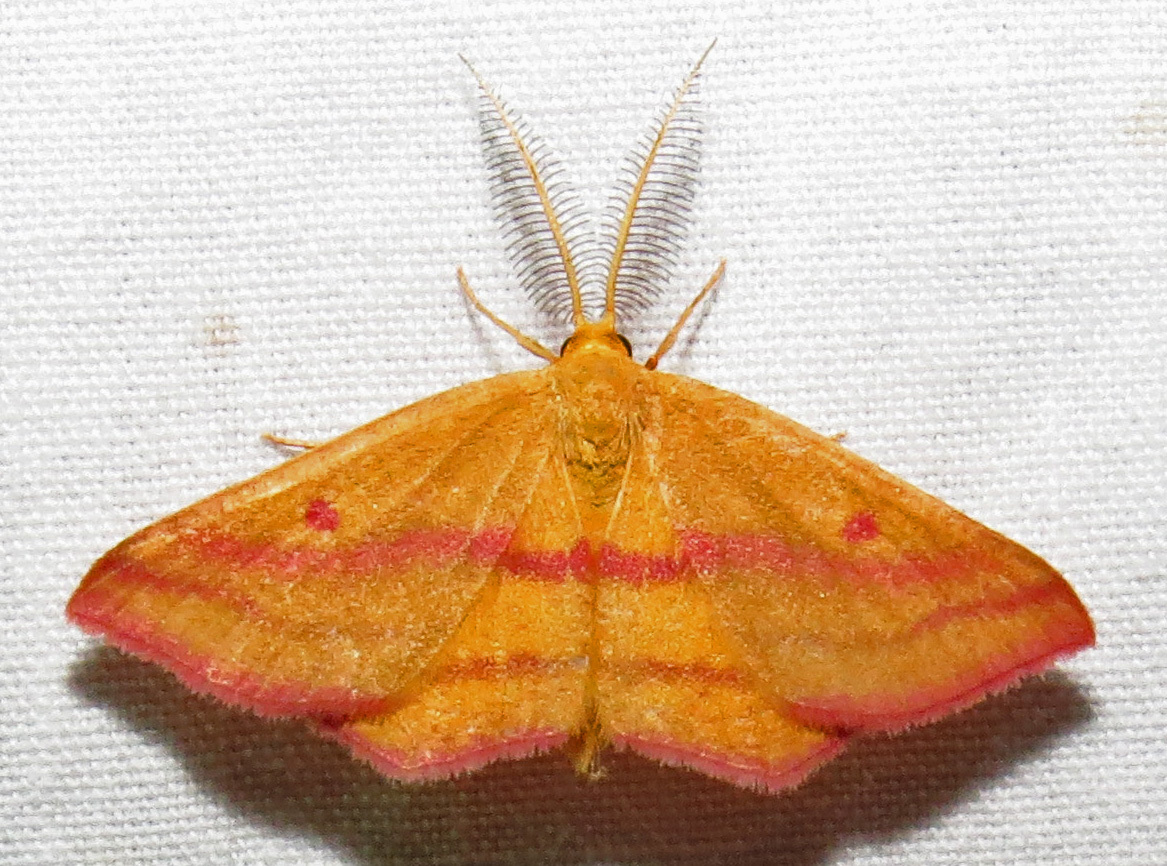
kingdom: Animalia
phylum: Arthropoda
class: Insecta
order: Lepidoptera
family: Geometridae
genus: Haematopis
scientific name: Haematopis grataria
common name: Chickweed geometer
